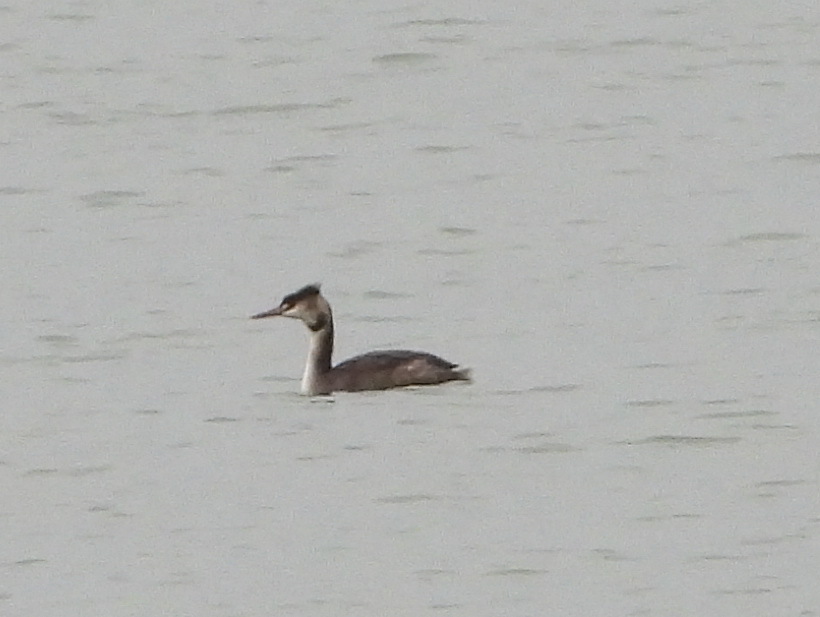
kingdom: Animalia
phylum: Chordata
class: Aves
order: Podicipediformes
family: Podicipedidae
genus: Podiceps
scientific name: Podiceps cristatus
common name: Great crested grebe
